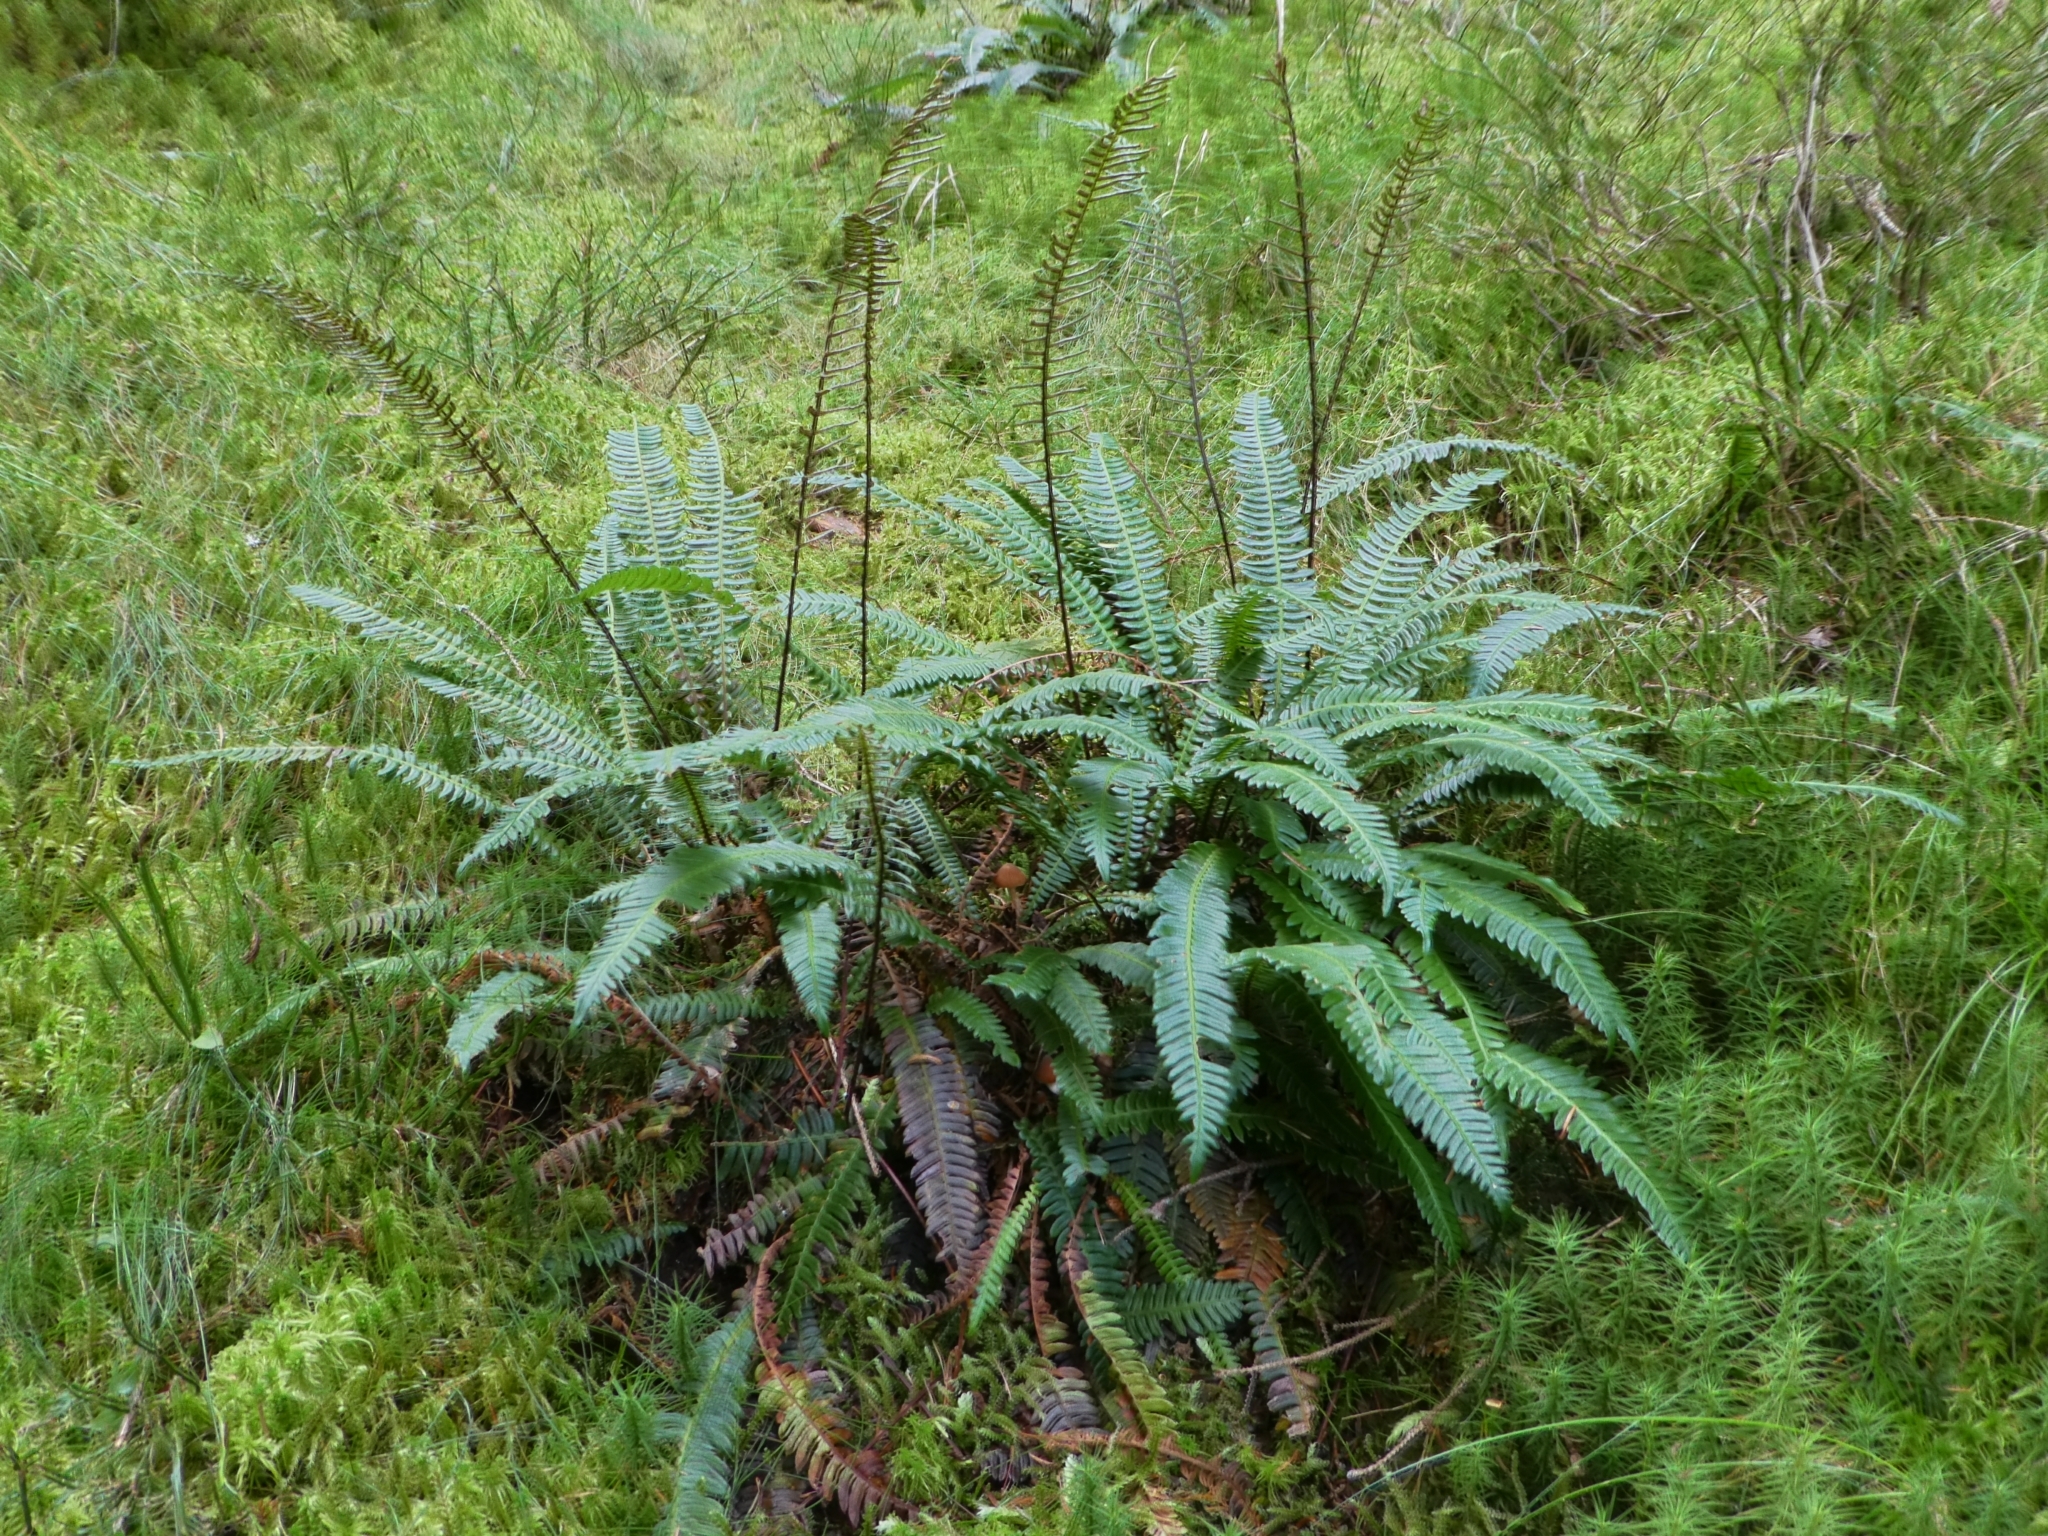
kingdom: Plantae
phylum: Tracheophyta
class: Polypodiopsida
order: Polypodiales
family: Blechnaceae
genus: Struthiopteris
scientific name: Struthiopteris spicant
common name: Deer fern
